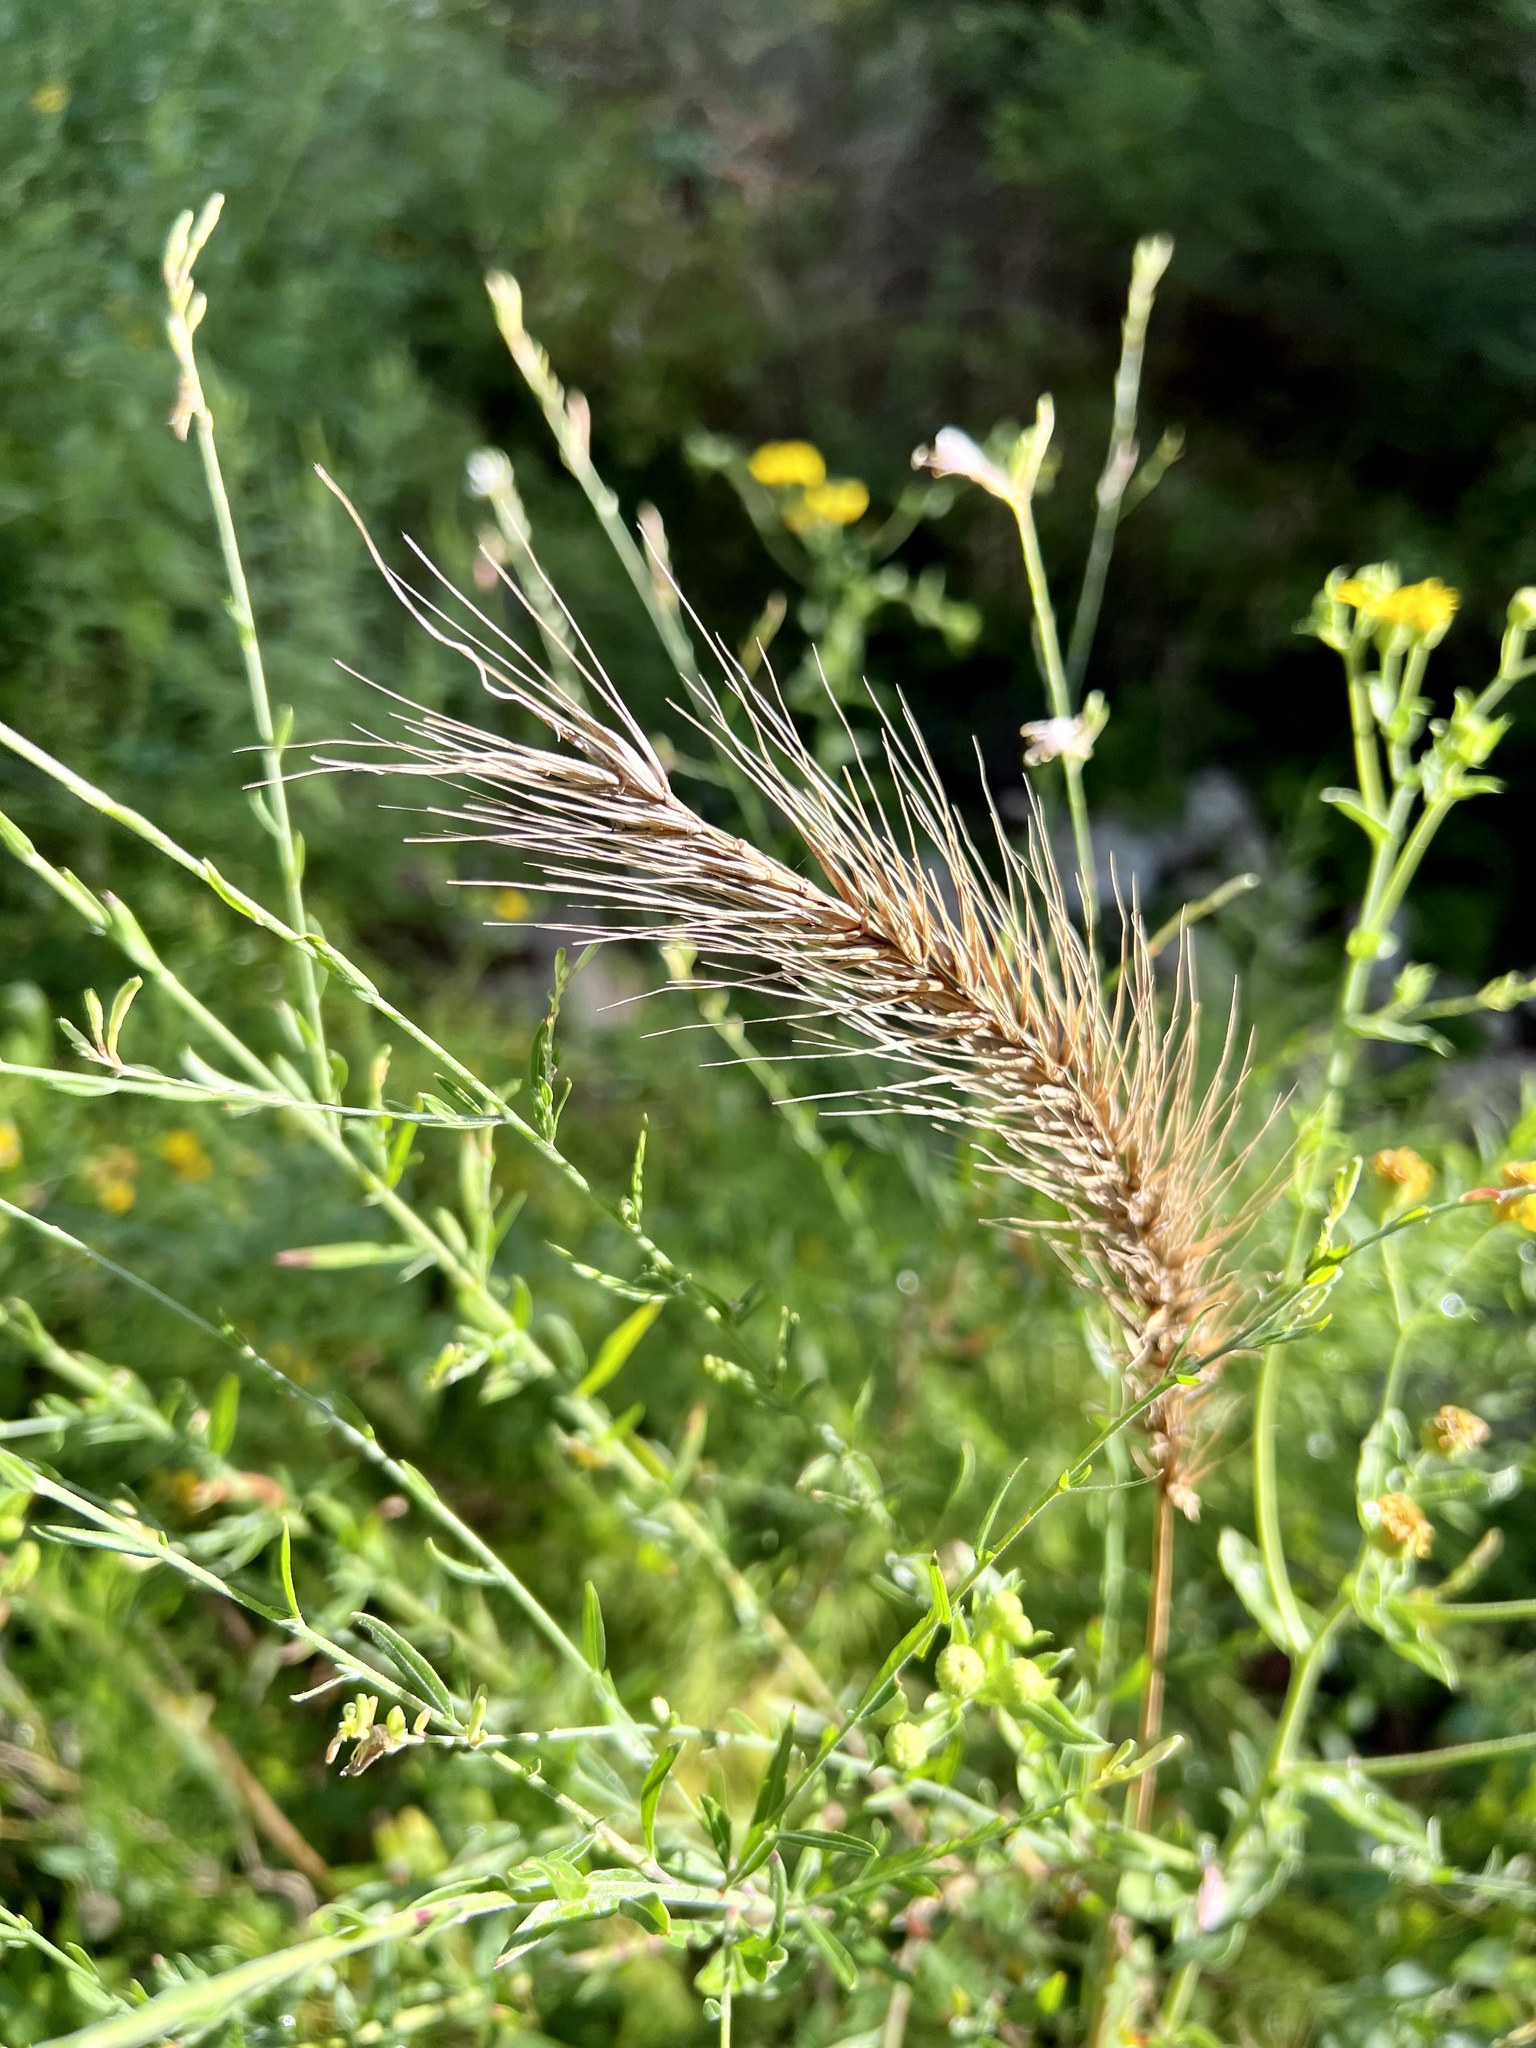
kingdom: Plantae
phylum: Tracheophyta
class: Liliopsida
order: Poales
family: Poaceae
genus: Elymus
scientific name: Elymus virginicus
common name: Common eastern wildrye
